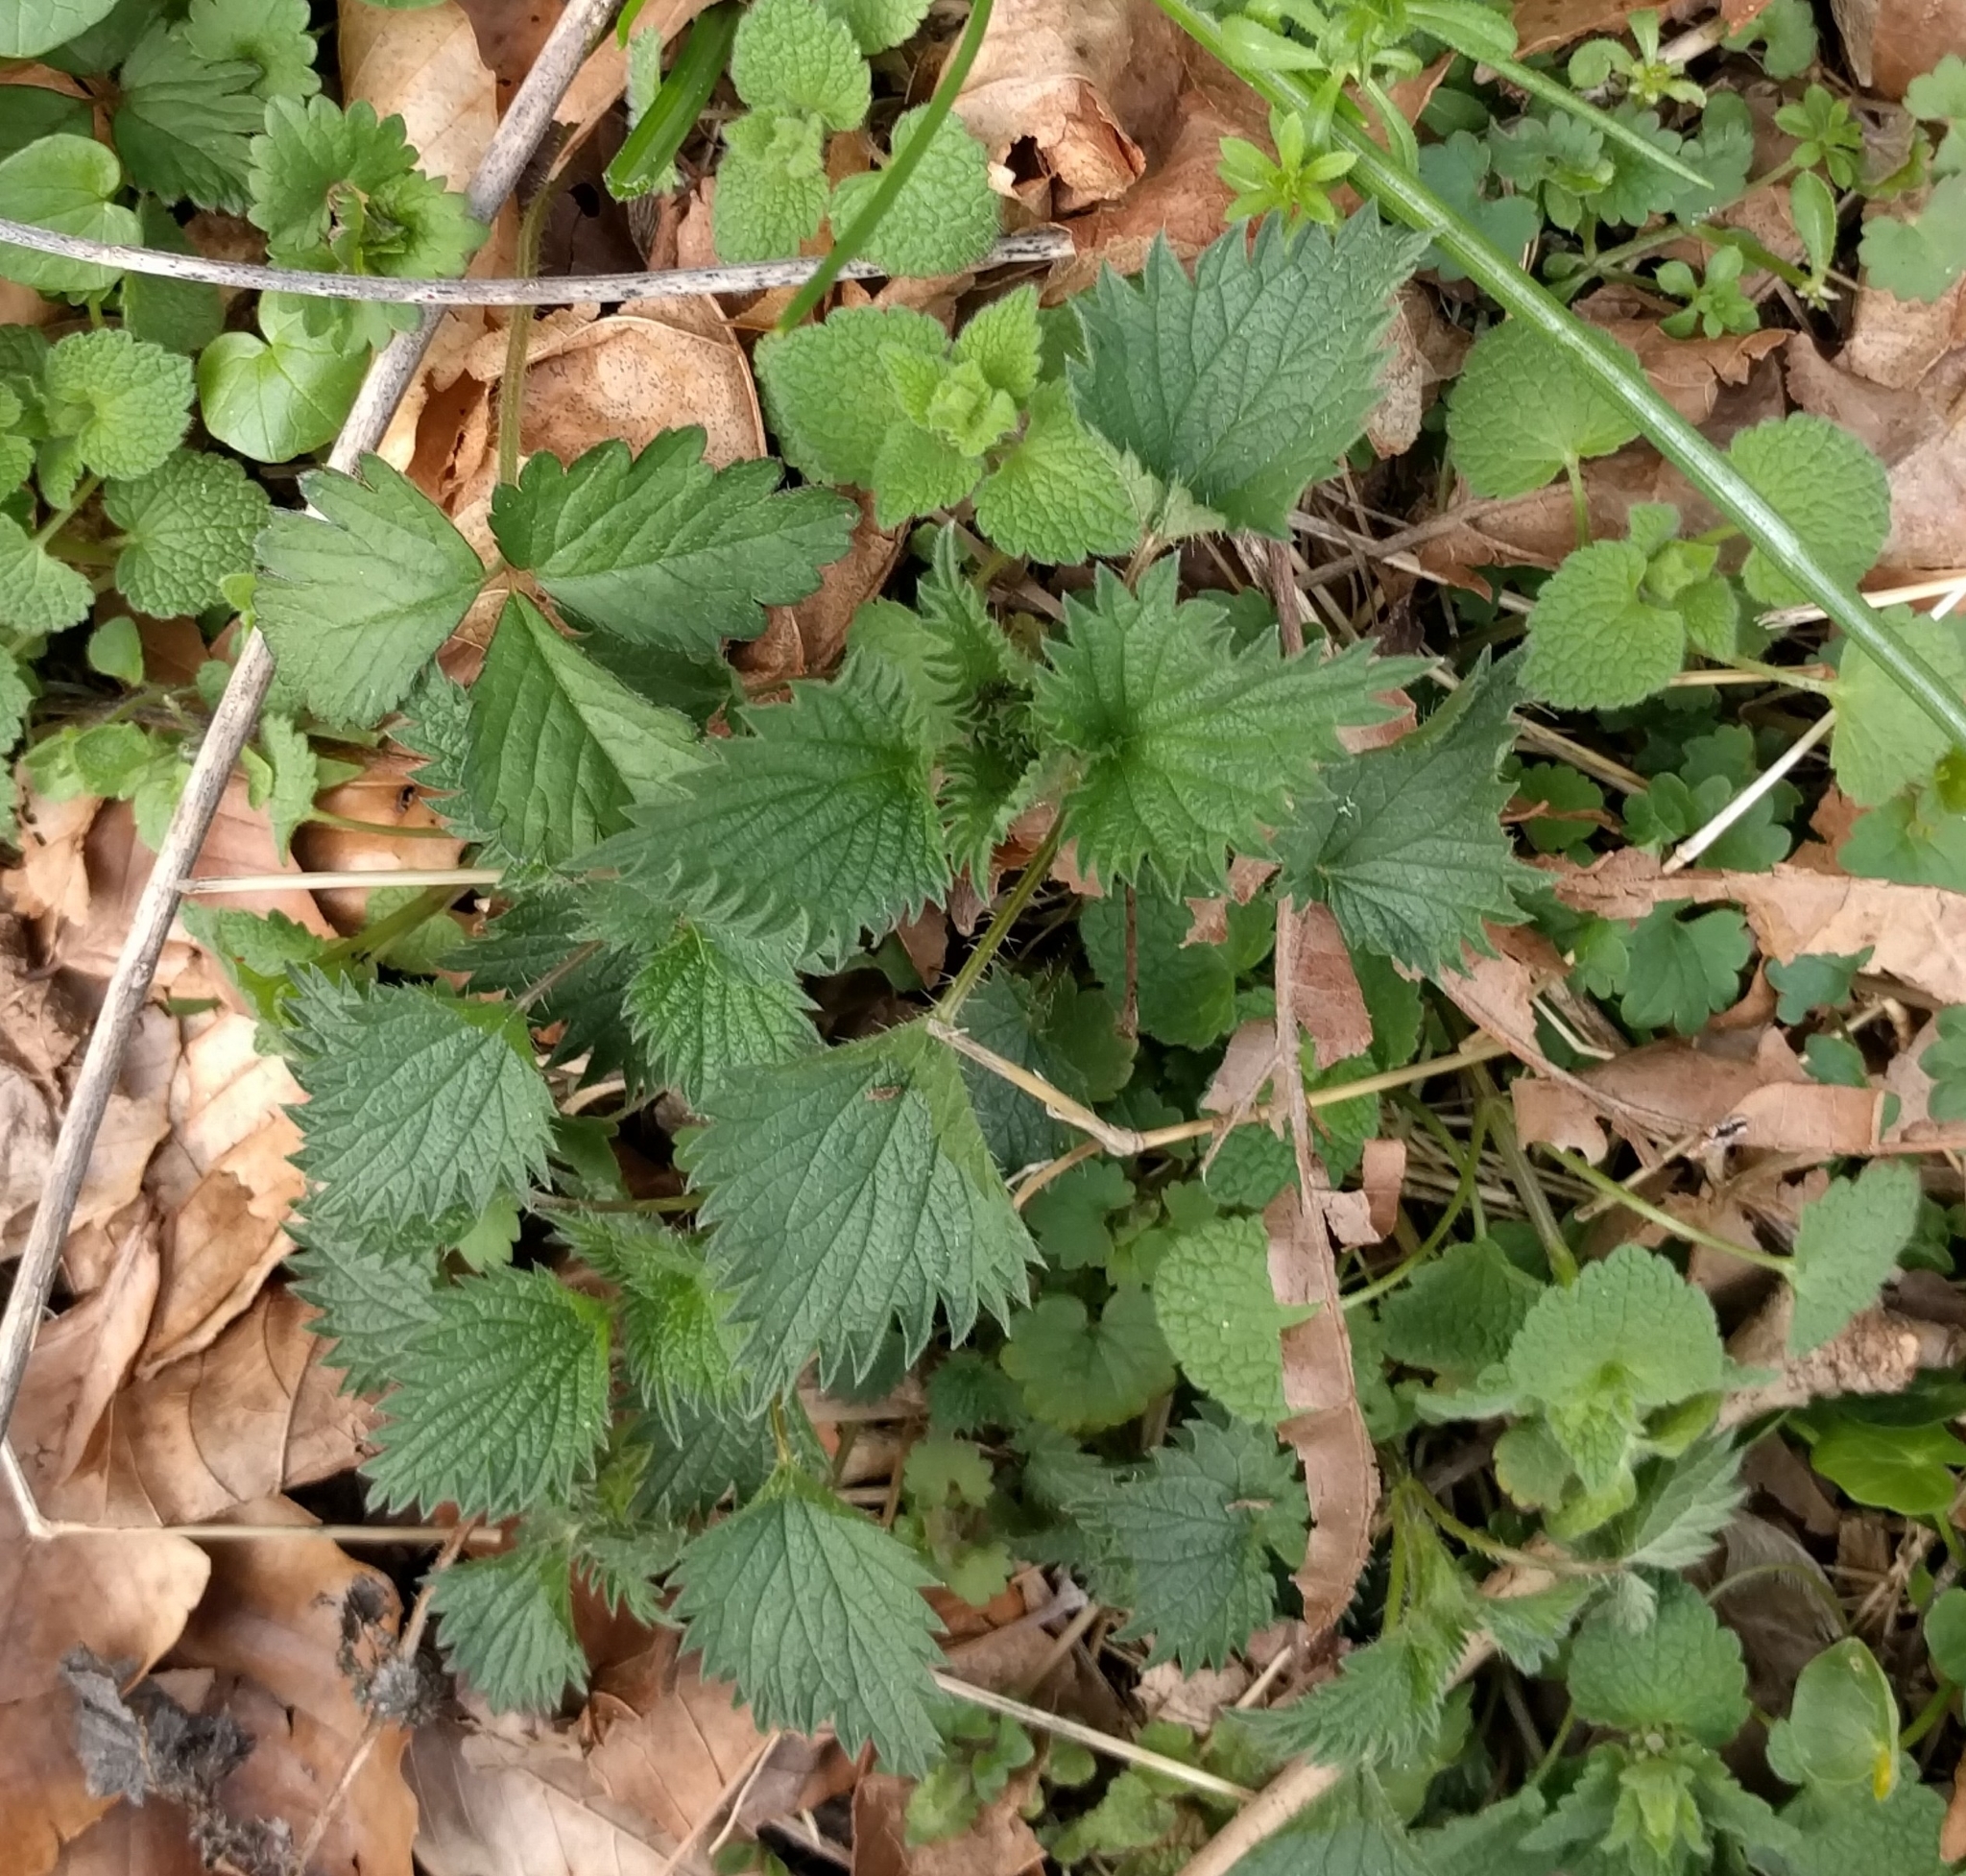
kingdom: Plantae
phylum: Tracheophyta
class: Magnoliopsida
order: Rosales
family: Urticaceae
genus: Urtica
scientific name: Urtica dioica
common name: Common nettle
